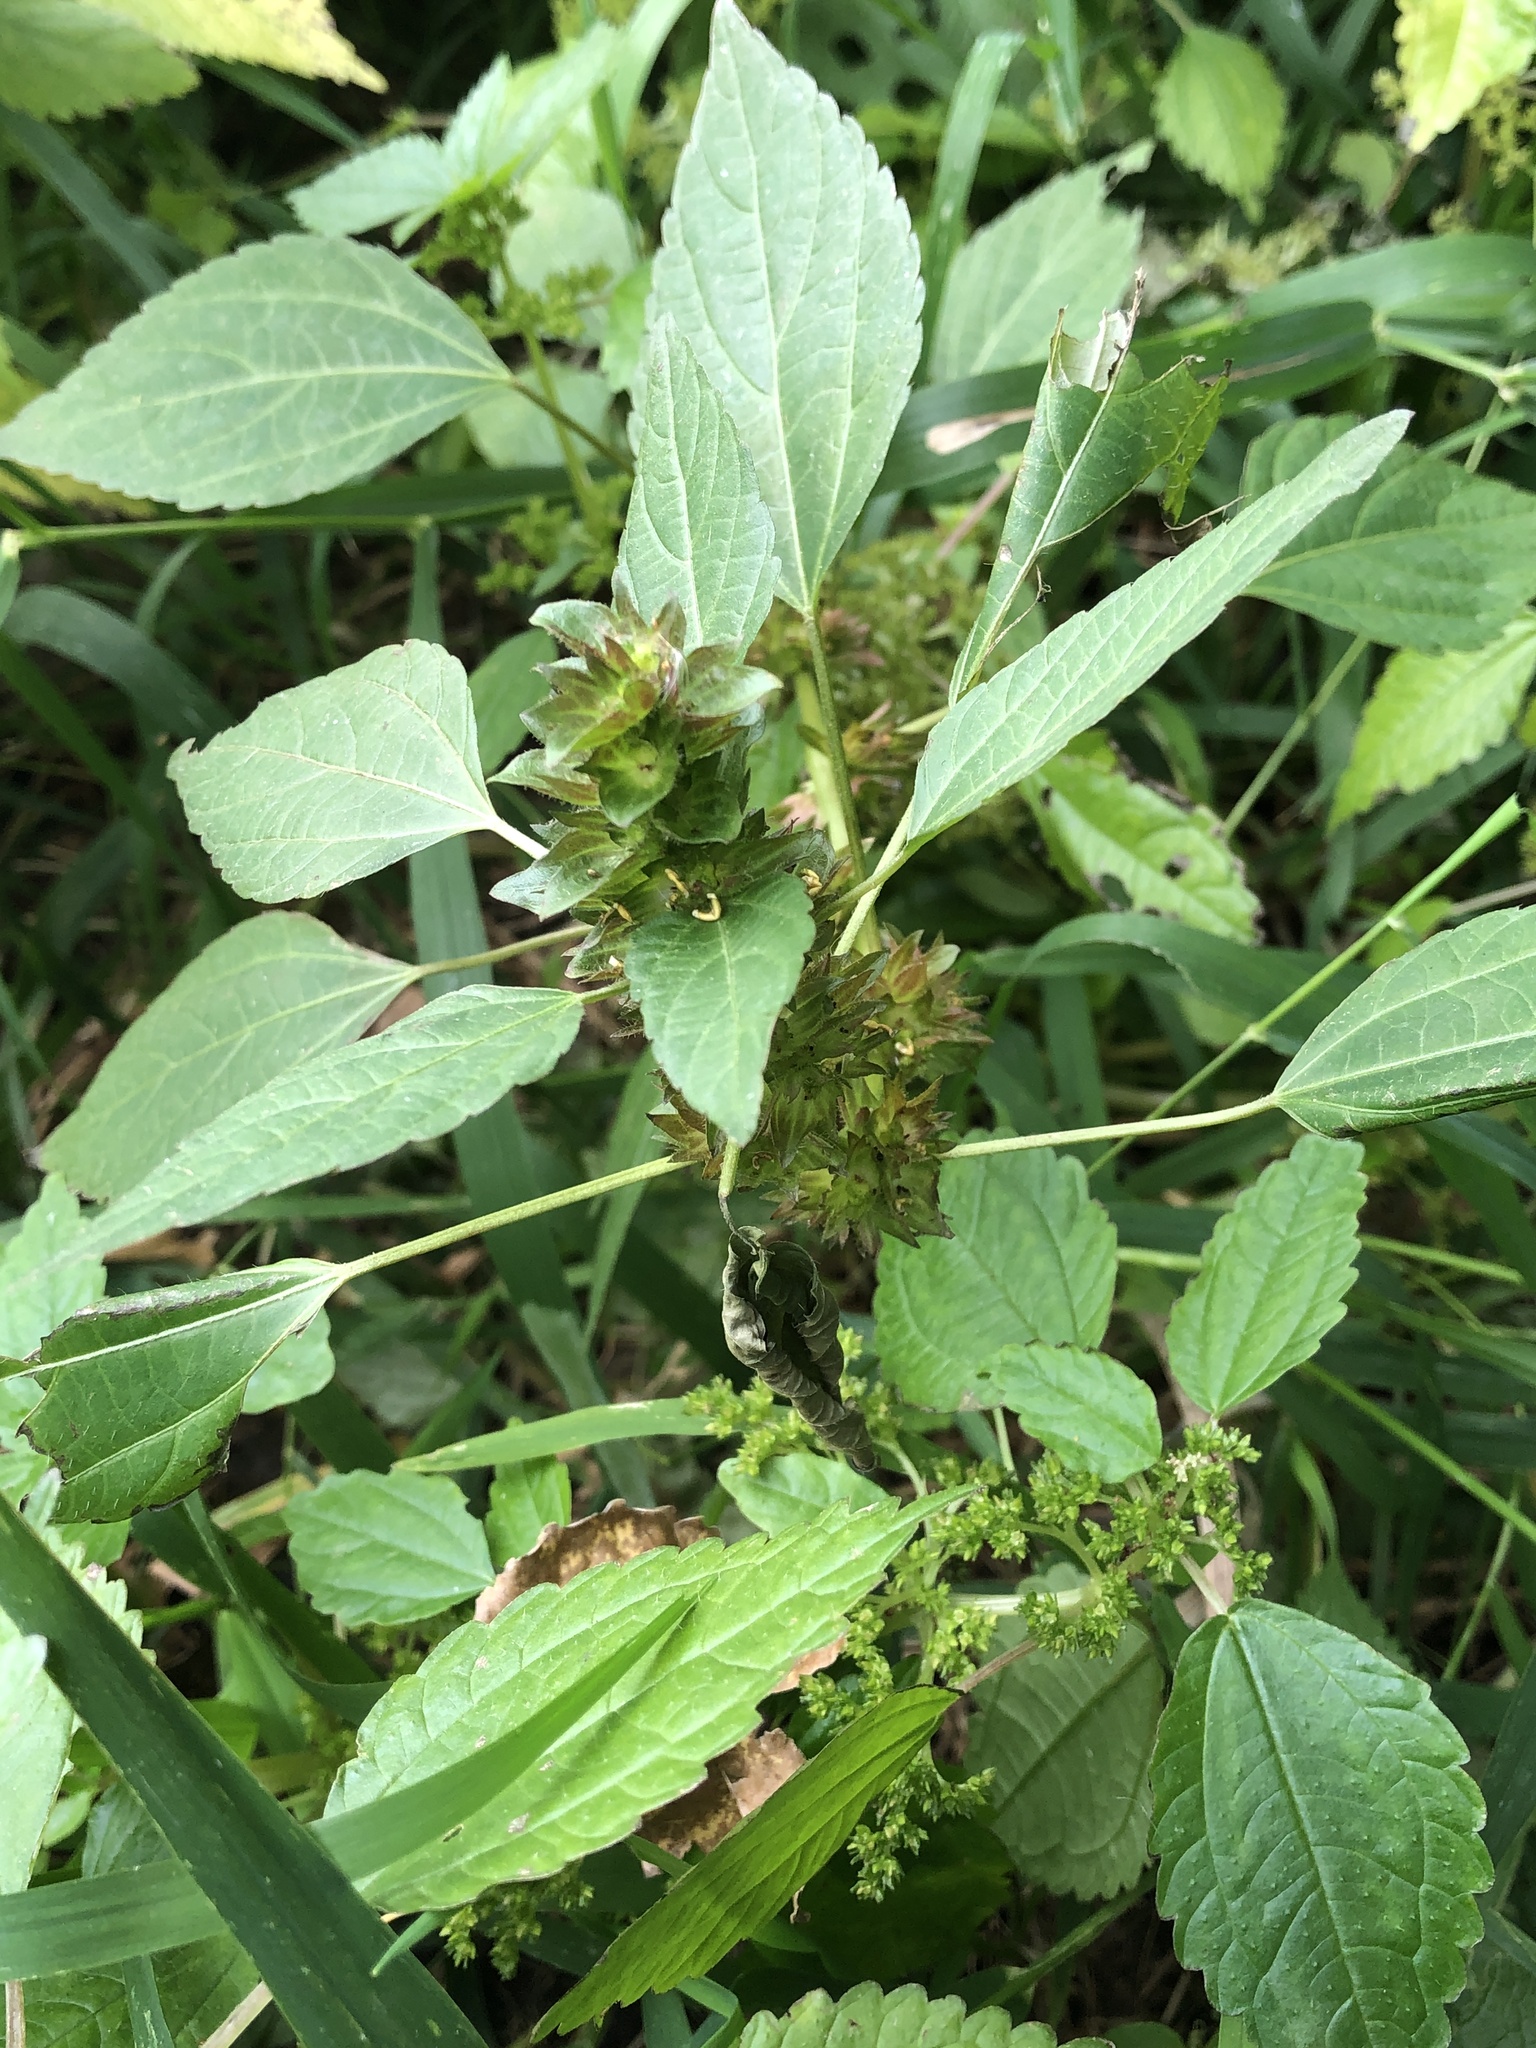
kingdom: Plantae
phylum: Tracheophyta
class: Magnoliopsida
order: Malpighiales
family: Euphorbiaceae
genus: Acalypha
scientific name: Acalypha rhomboidea
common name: Rhombic copperleaf
